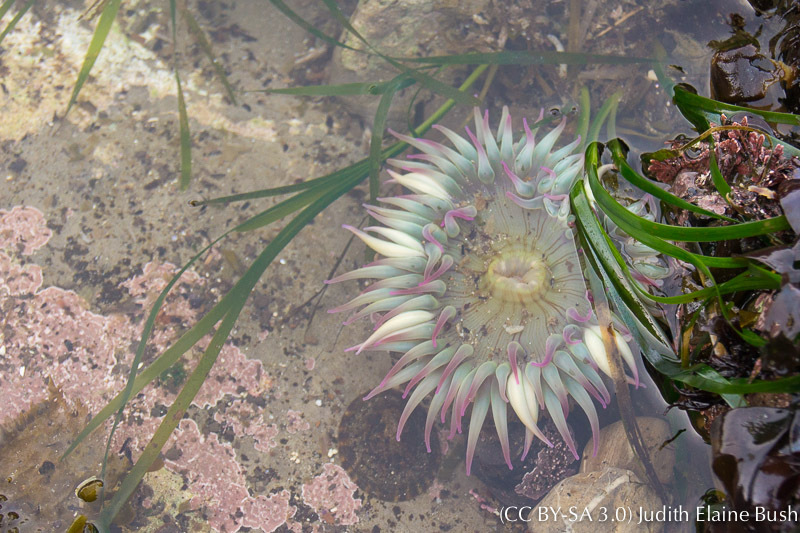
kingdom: Animalia
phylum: Cnidaria
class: Anthozoa
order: Actiniaria
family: Actiniidae
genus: Anthopleura
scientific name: Anthopleura elegantissima
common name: Clonal anemone
